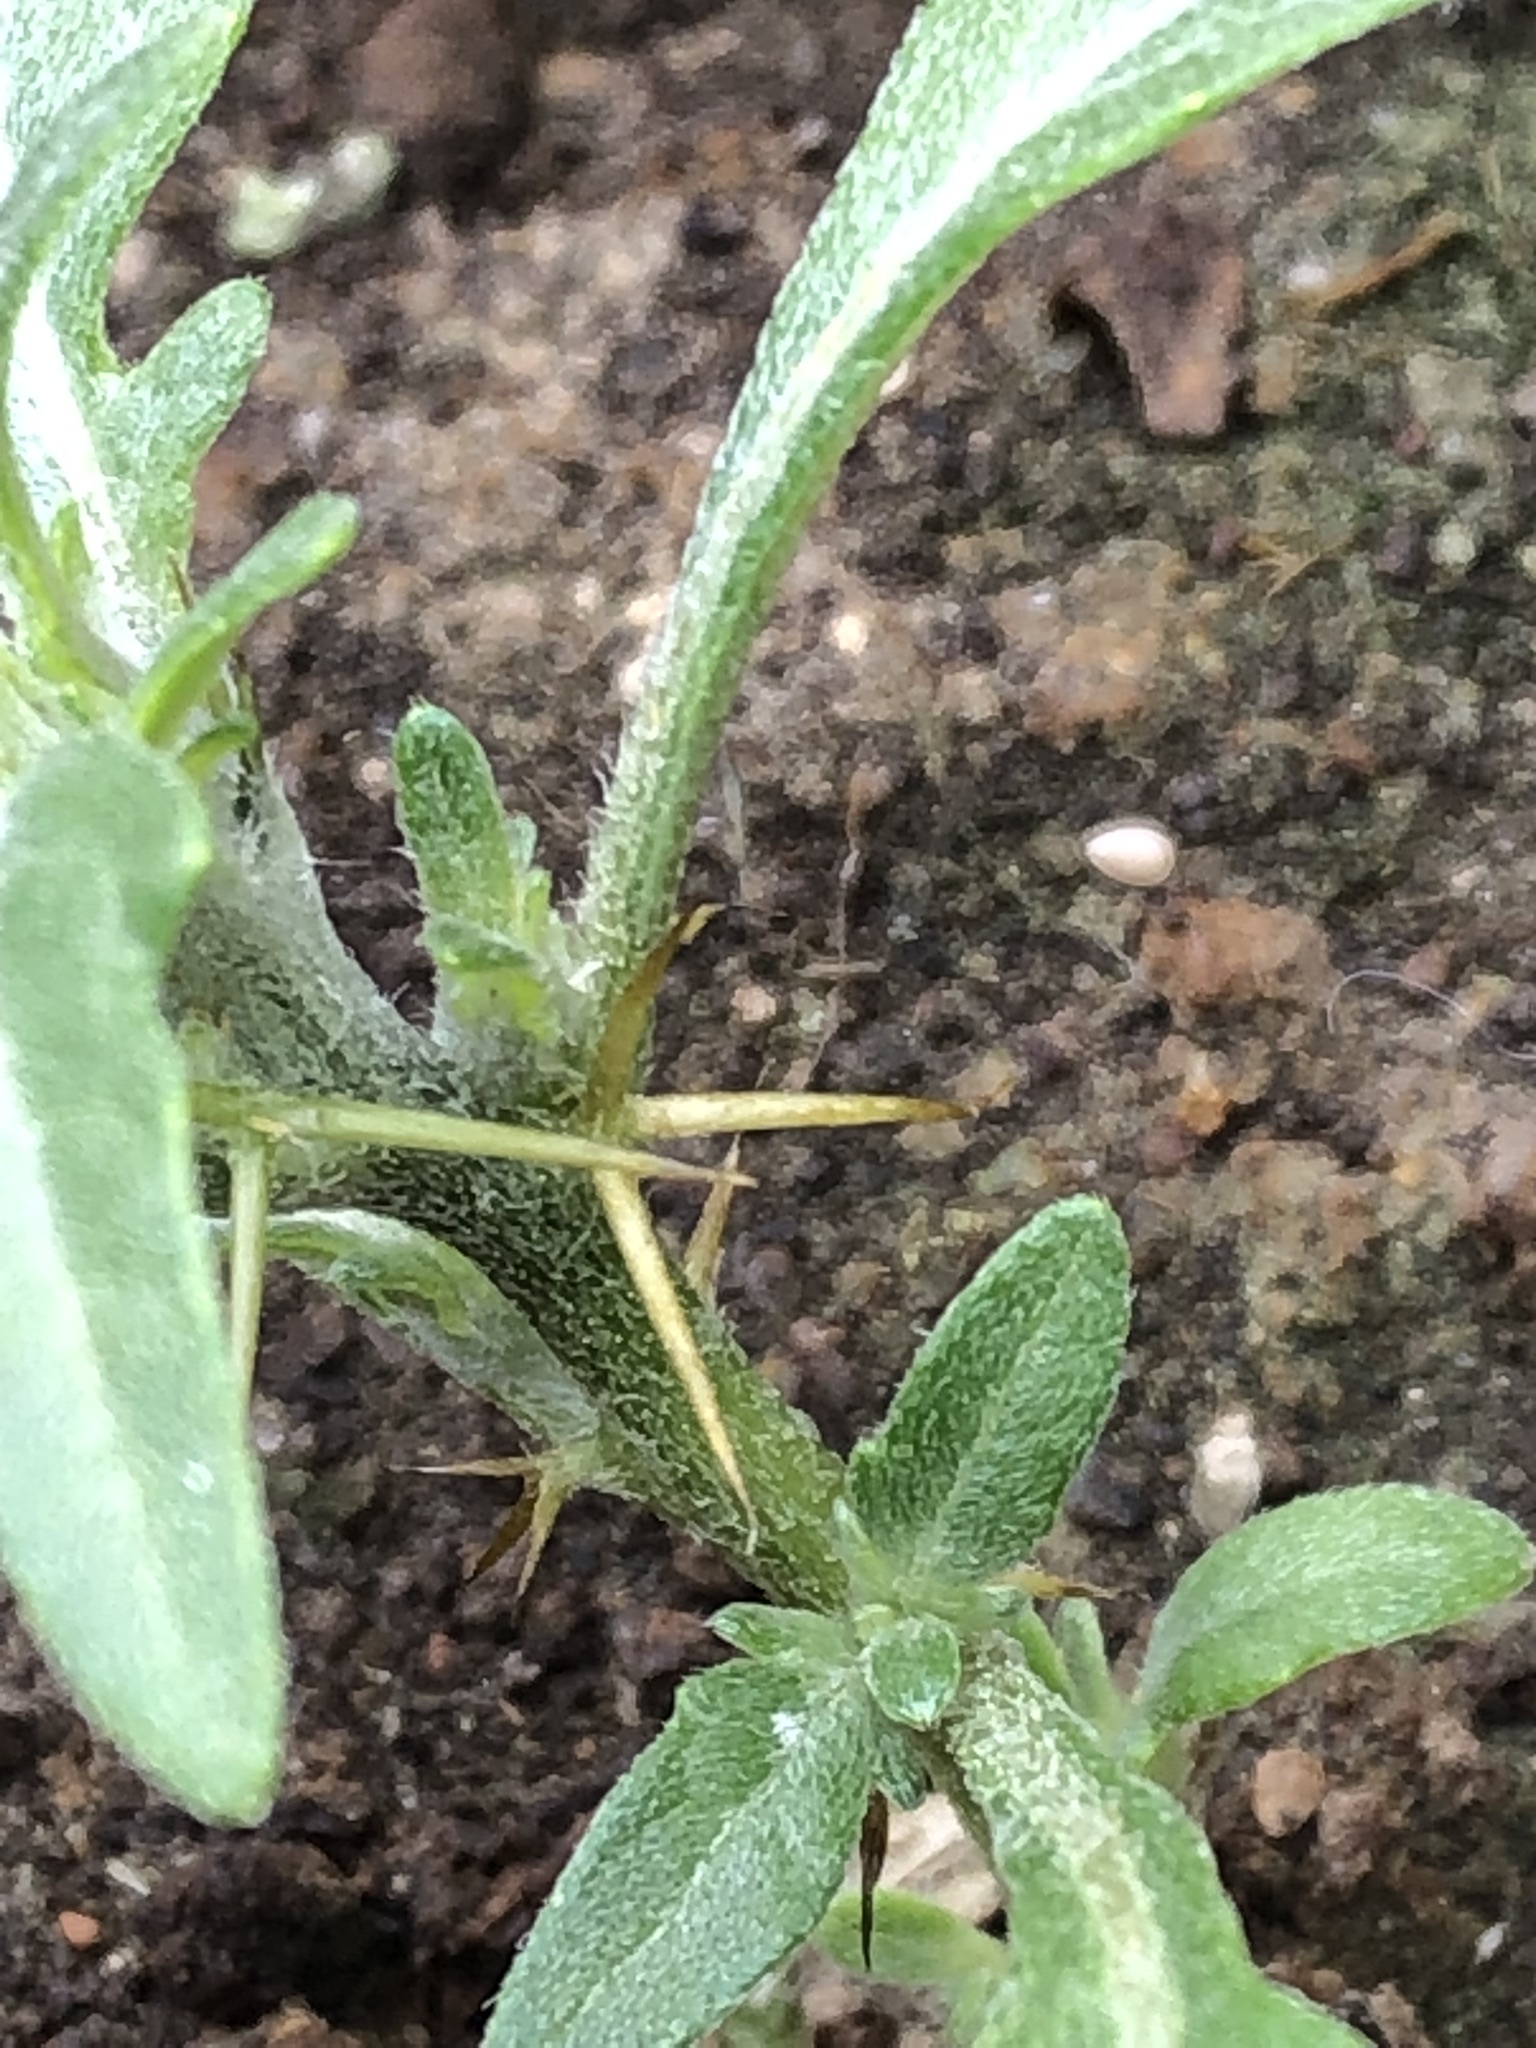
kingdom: Plantae
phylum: Tracheophyta
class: Magnoliopsida
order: Asterales
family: Asteraceae
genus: Xanthium
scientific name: Xanthium spinosum
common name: Spiny cocklebur
